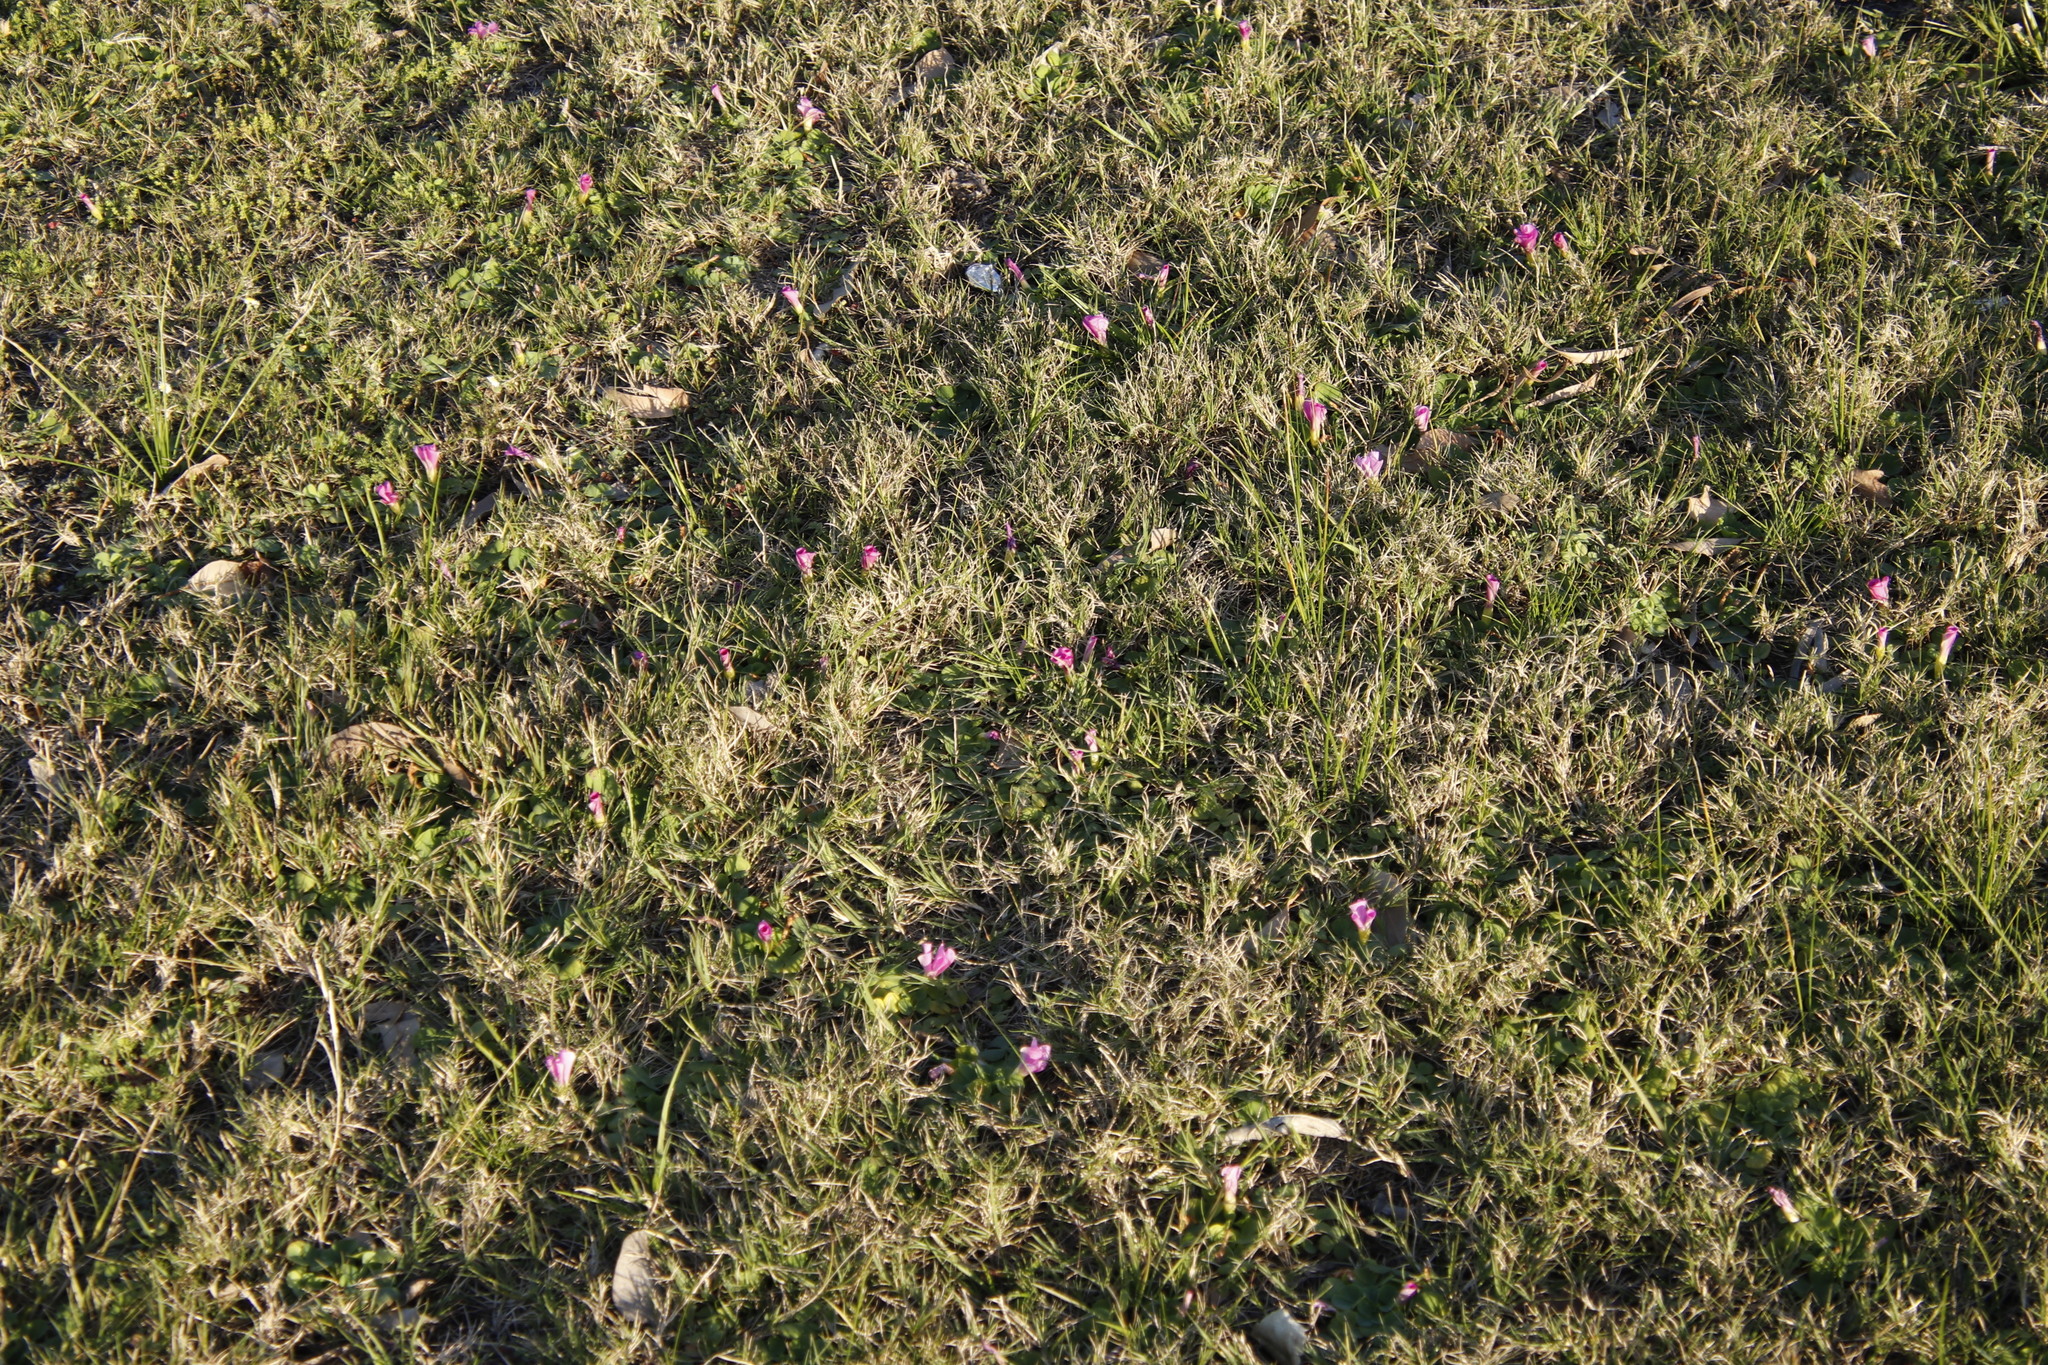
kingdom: Plantae
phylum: Tracheophyta
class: Magnoliopsida
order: Oxalidales
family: Oxalidaceae
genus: Oxalis
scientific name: Oxalis purpurea
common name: Purple woodsorrel
